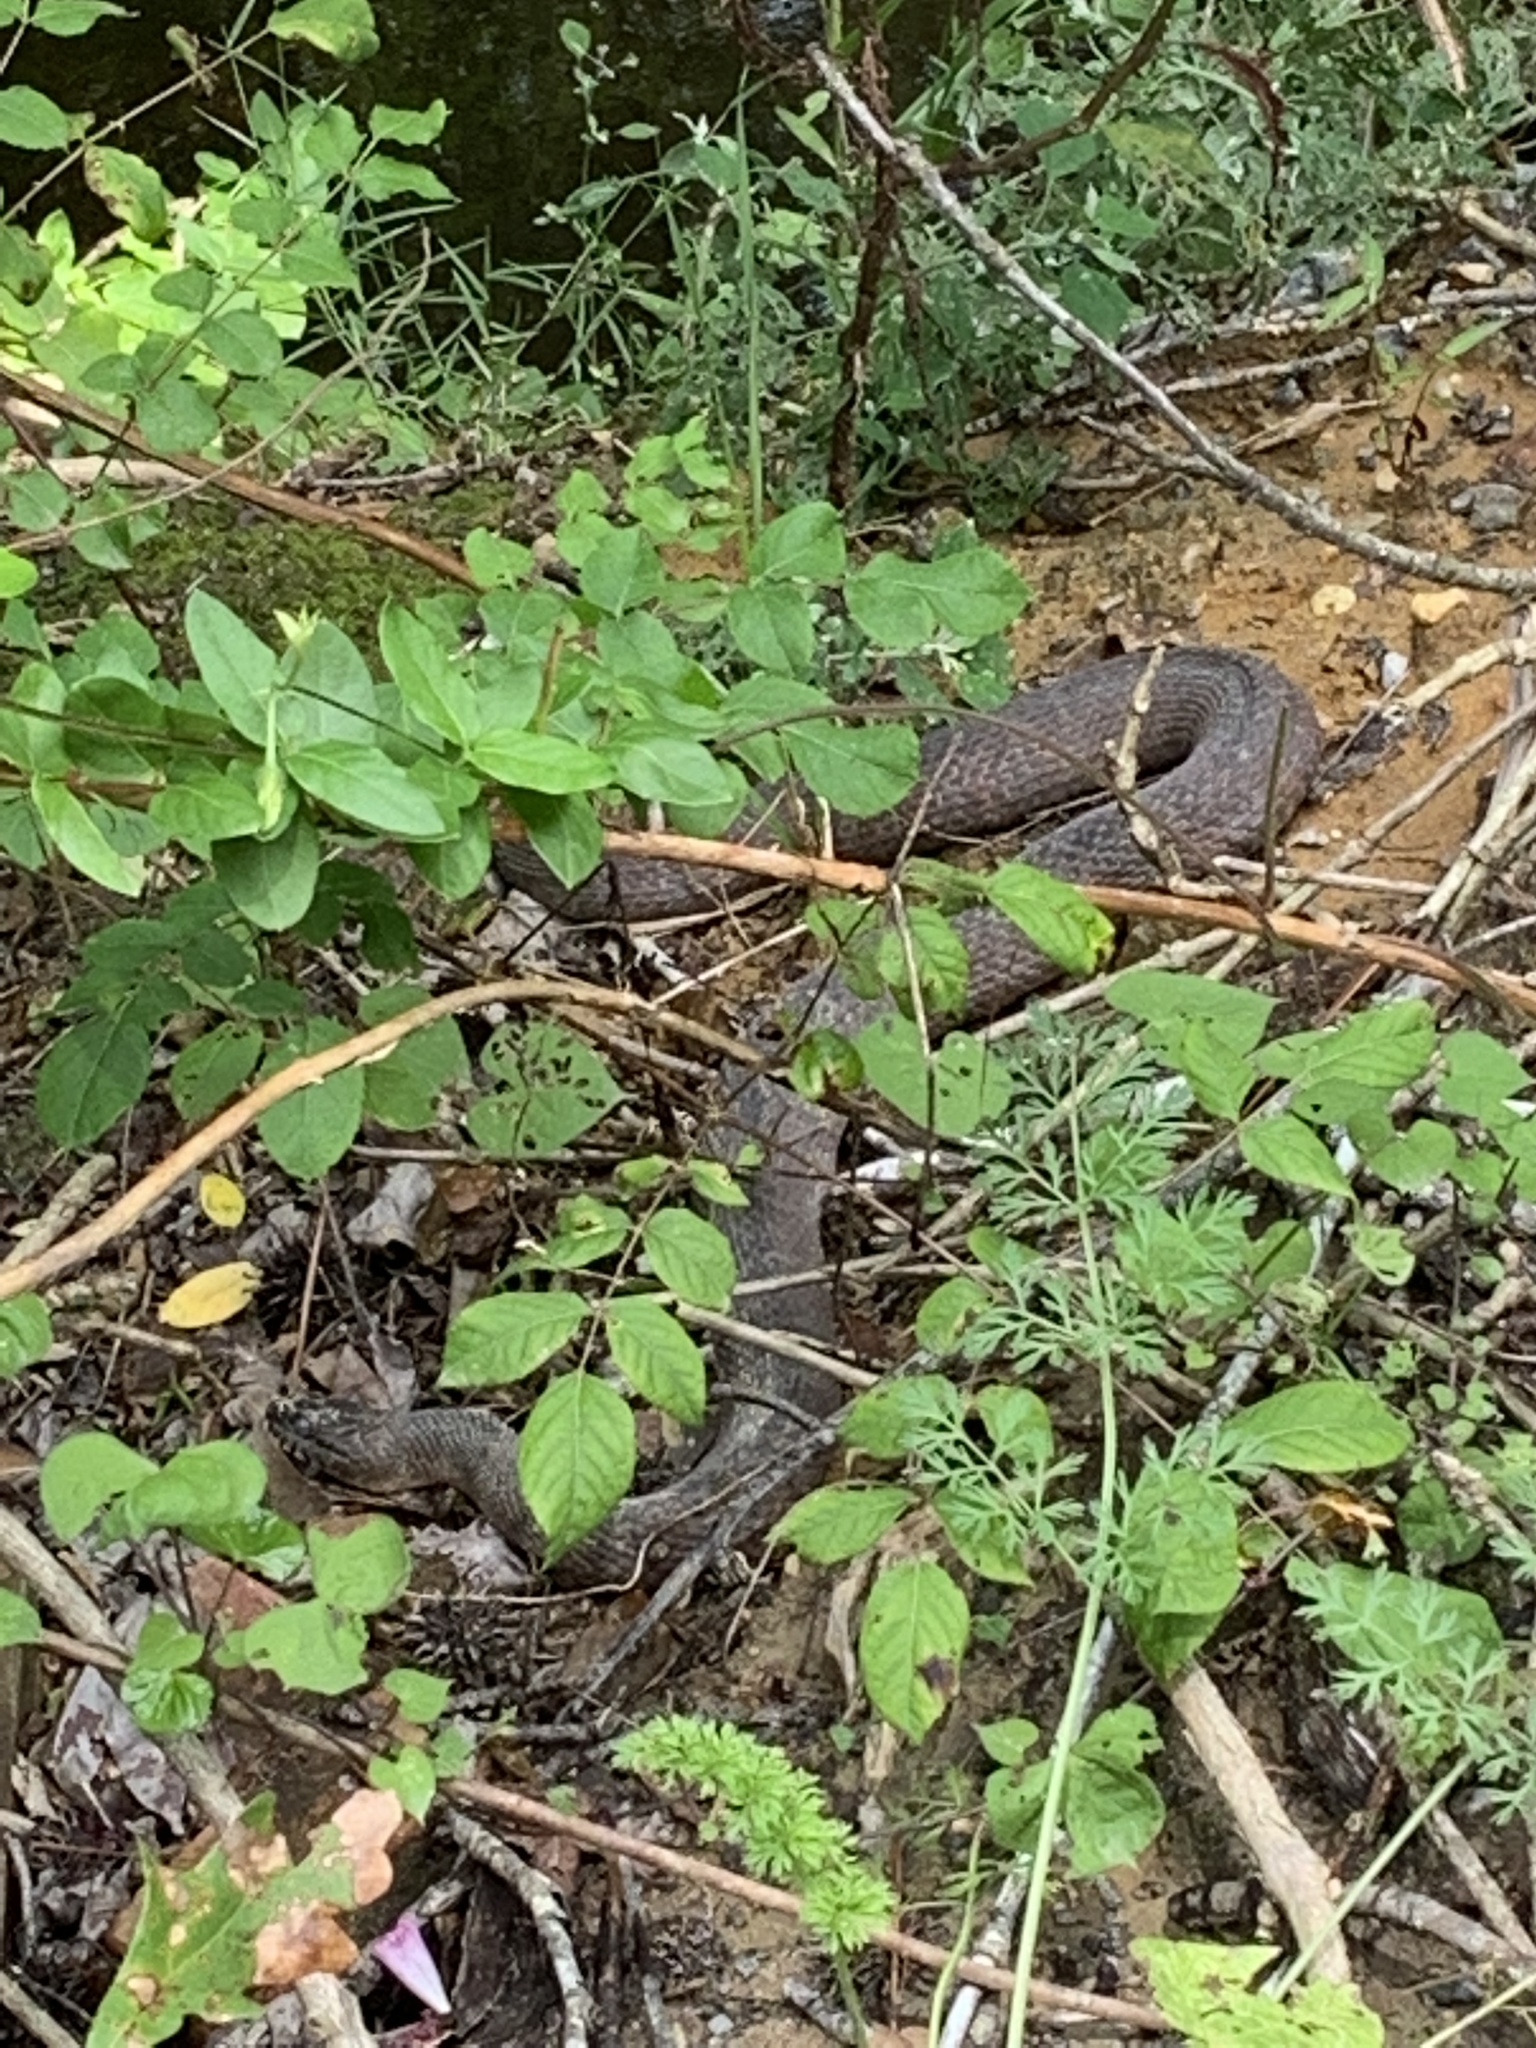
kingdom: Animalia
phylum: Chordata
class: Squamata
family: Colubridae
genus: Nerodia
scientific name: Nerodia sipedon
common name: Northern water snake
